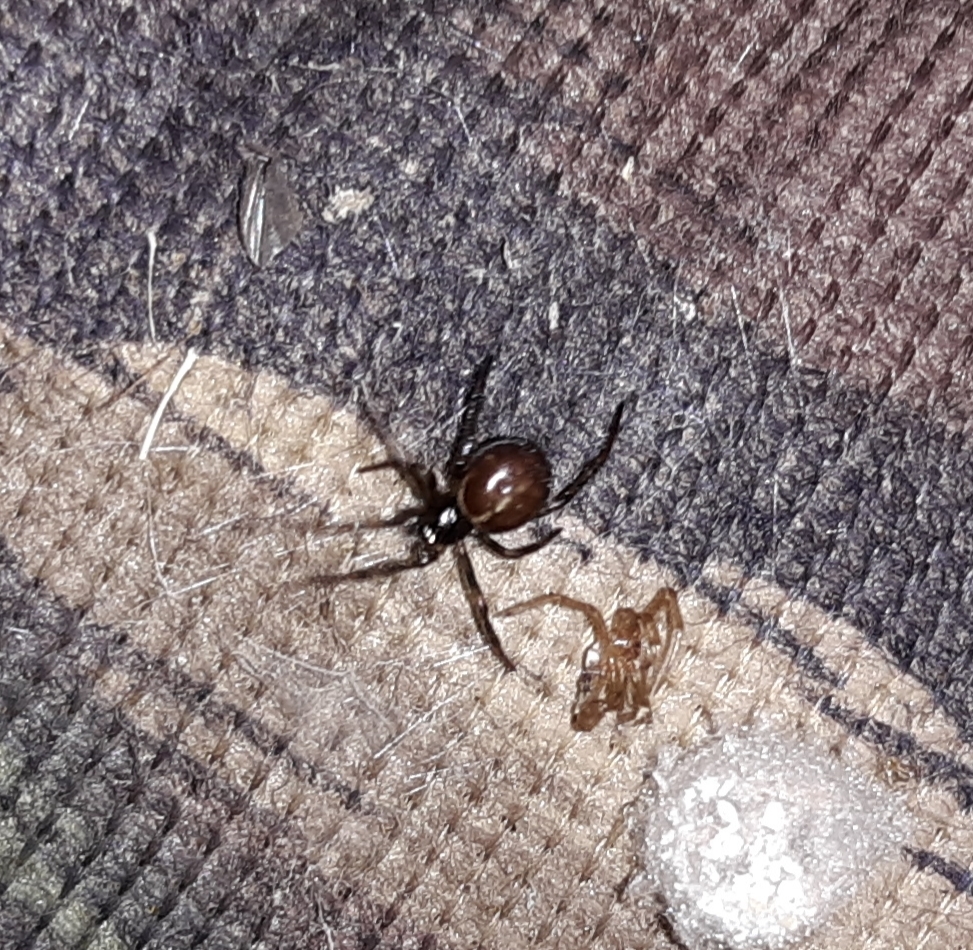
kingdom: Animalia
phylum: Arthropoda
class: Arachnida
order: Araneae
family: Theridiidae
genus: Steatoda
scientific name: Steatoda borealis
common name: Boreal combfoot
